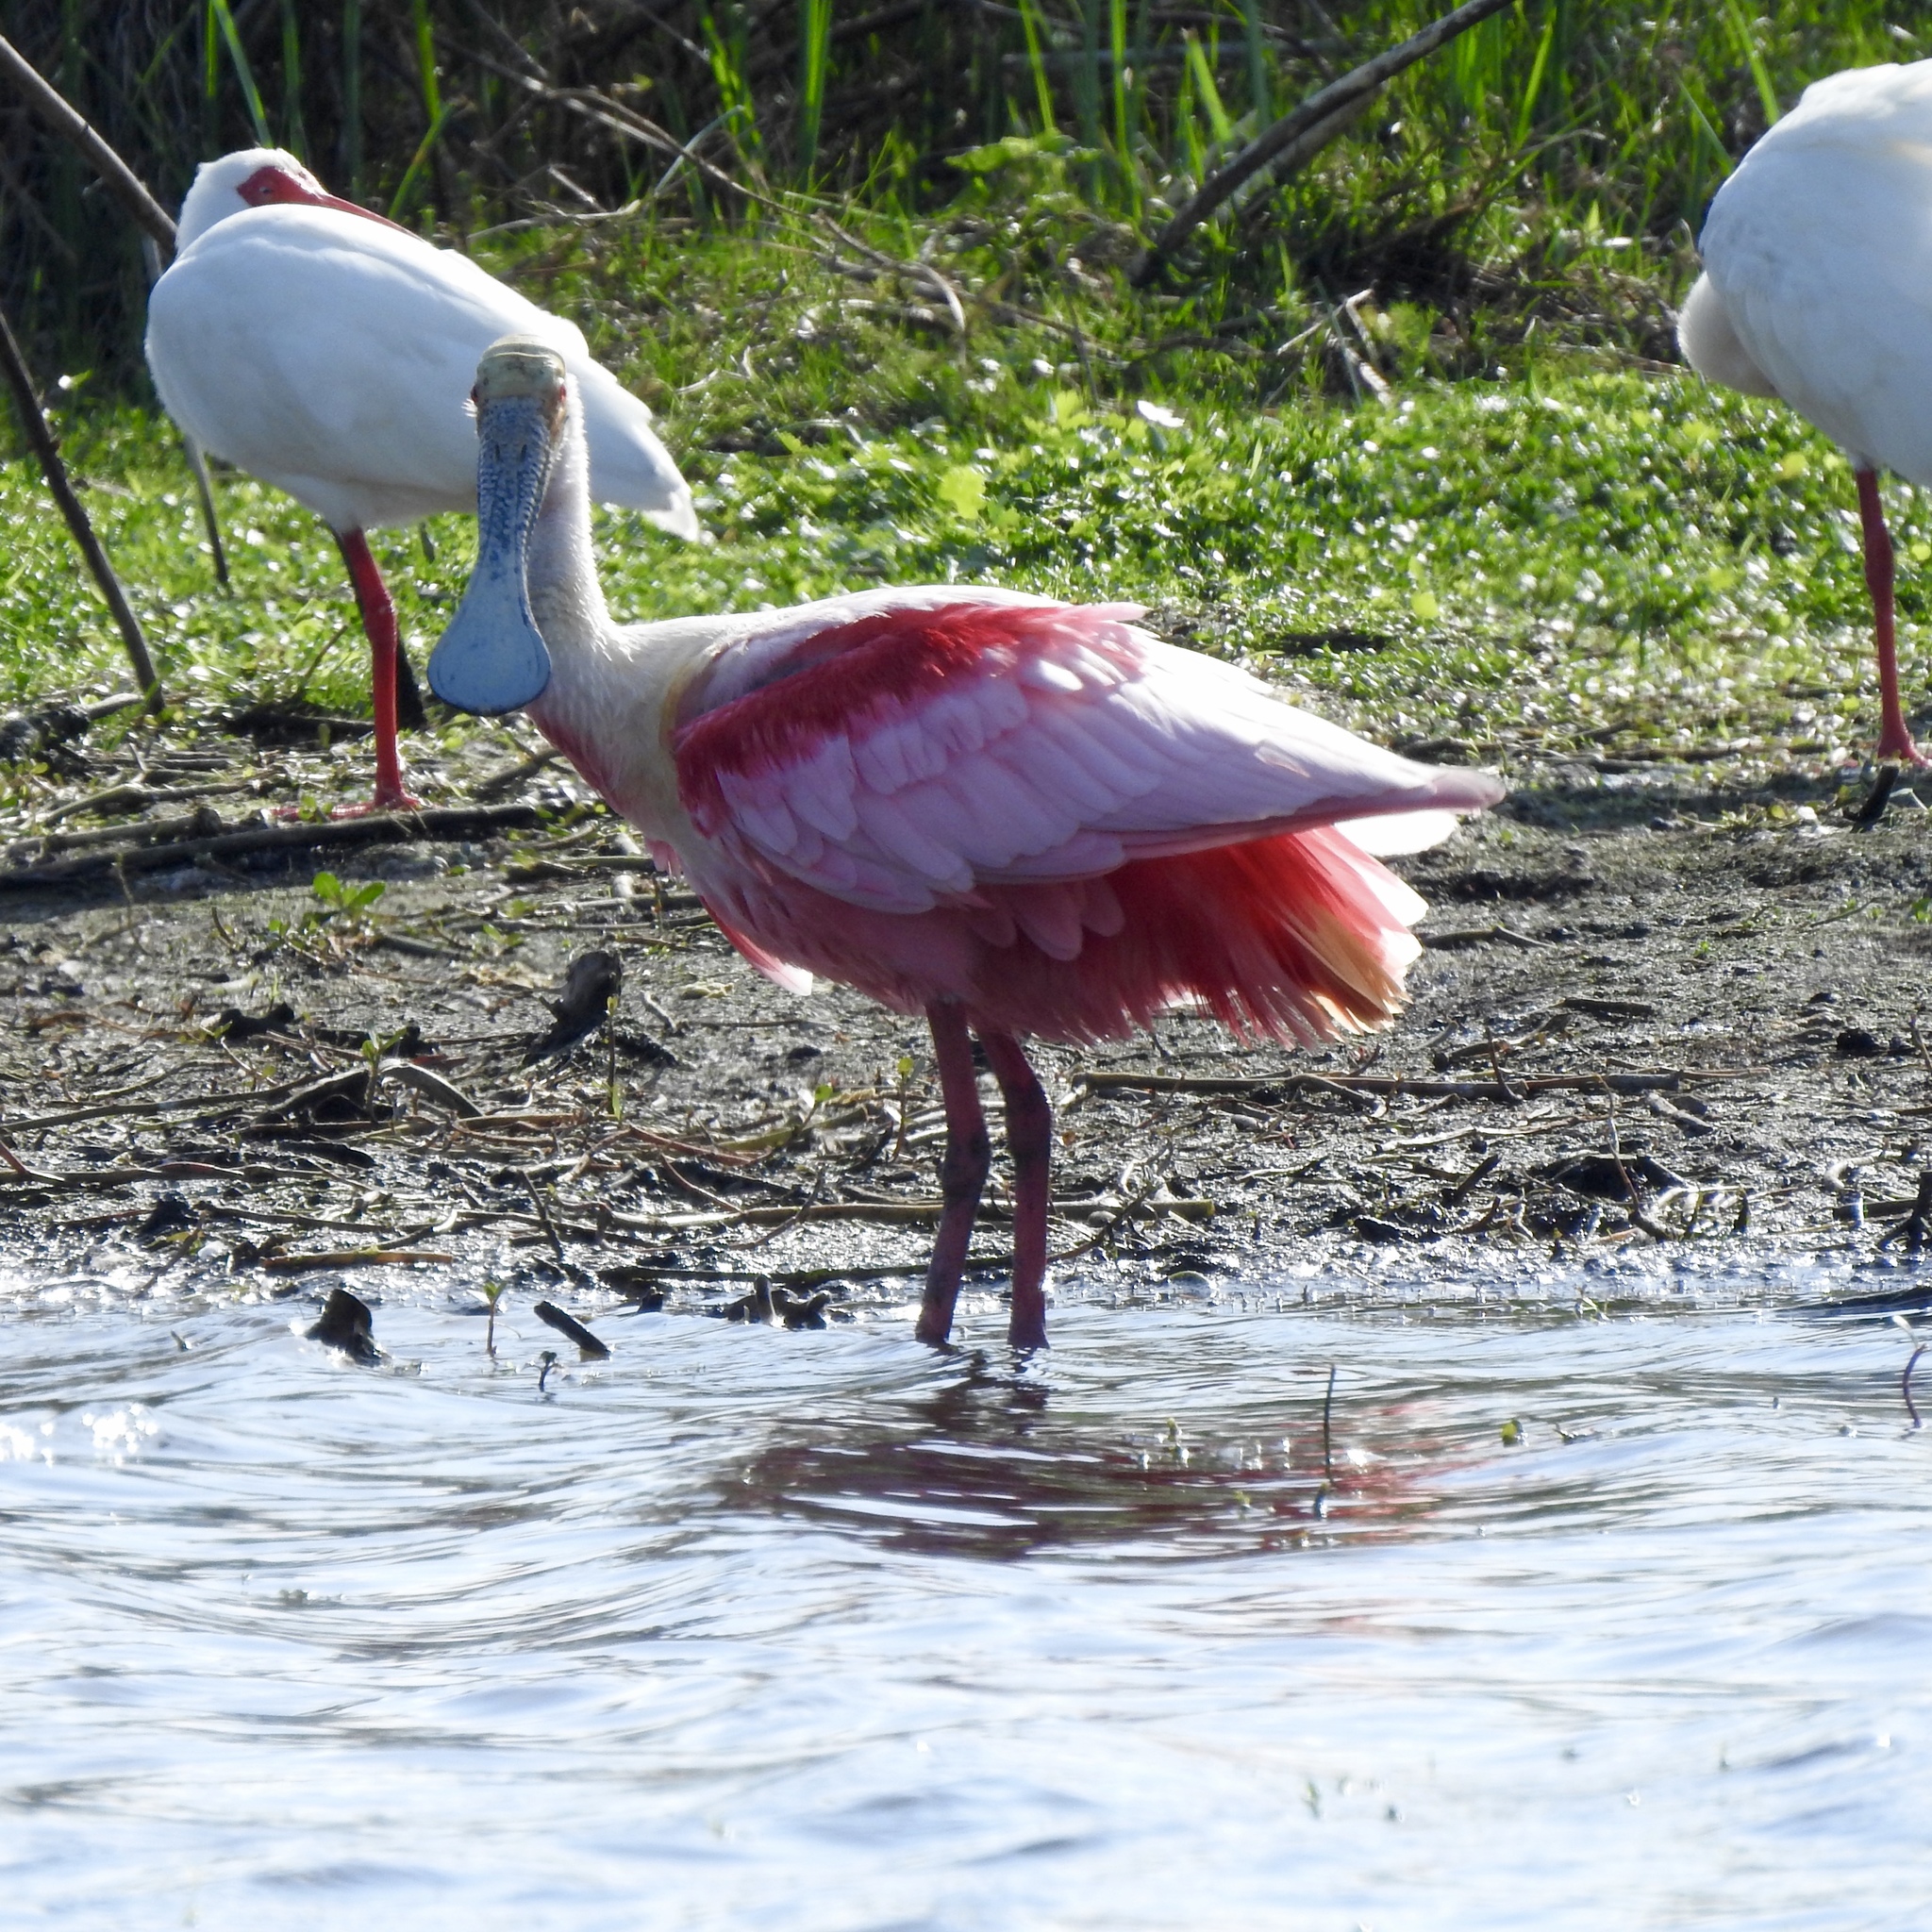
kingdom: Animalia
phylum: Chordata
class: Aves
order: Pelecaniformes
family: Threskiornithidae
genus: Platalea
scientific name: Platalea ajaja
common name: Roseate spoonbill
